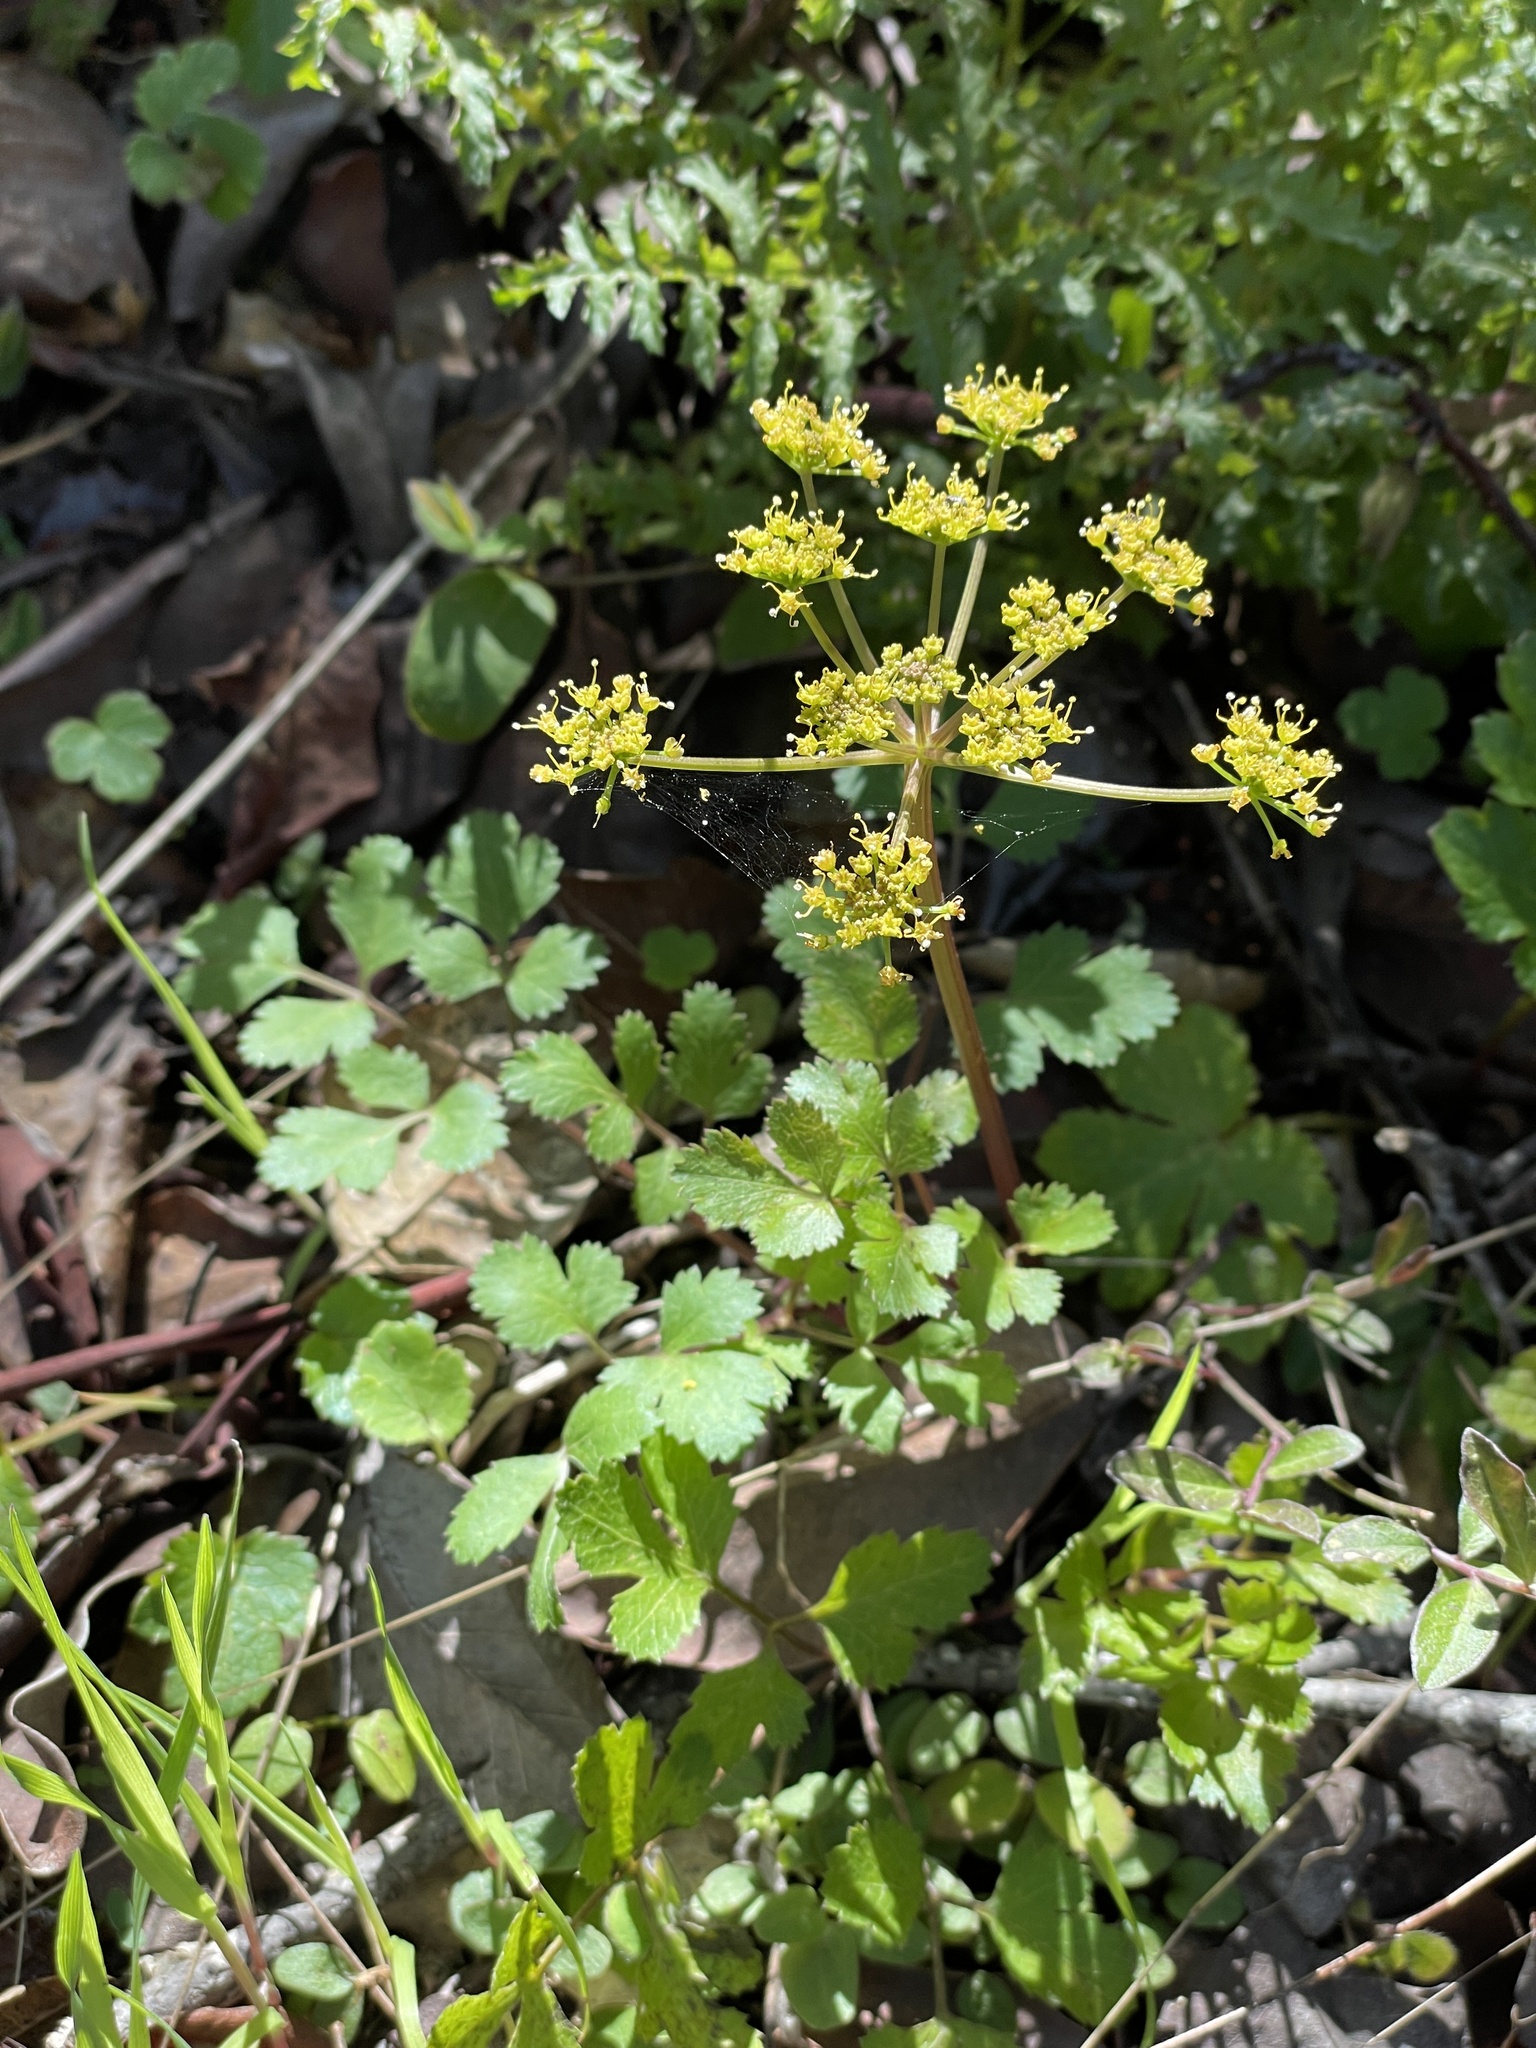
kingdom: Plantae
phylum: Tracheophyta
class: Magnoliopsida
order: Apiales
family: Apiaceae
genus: Tauschia
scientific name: Tauschia hartwegii
